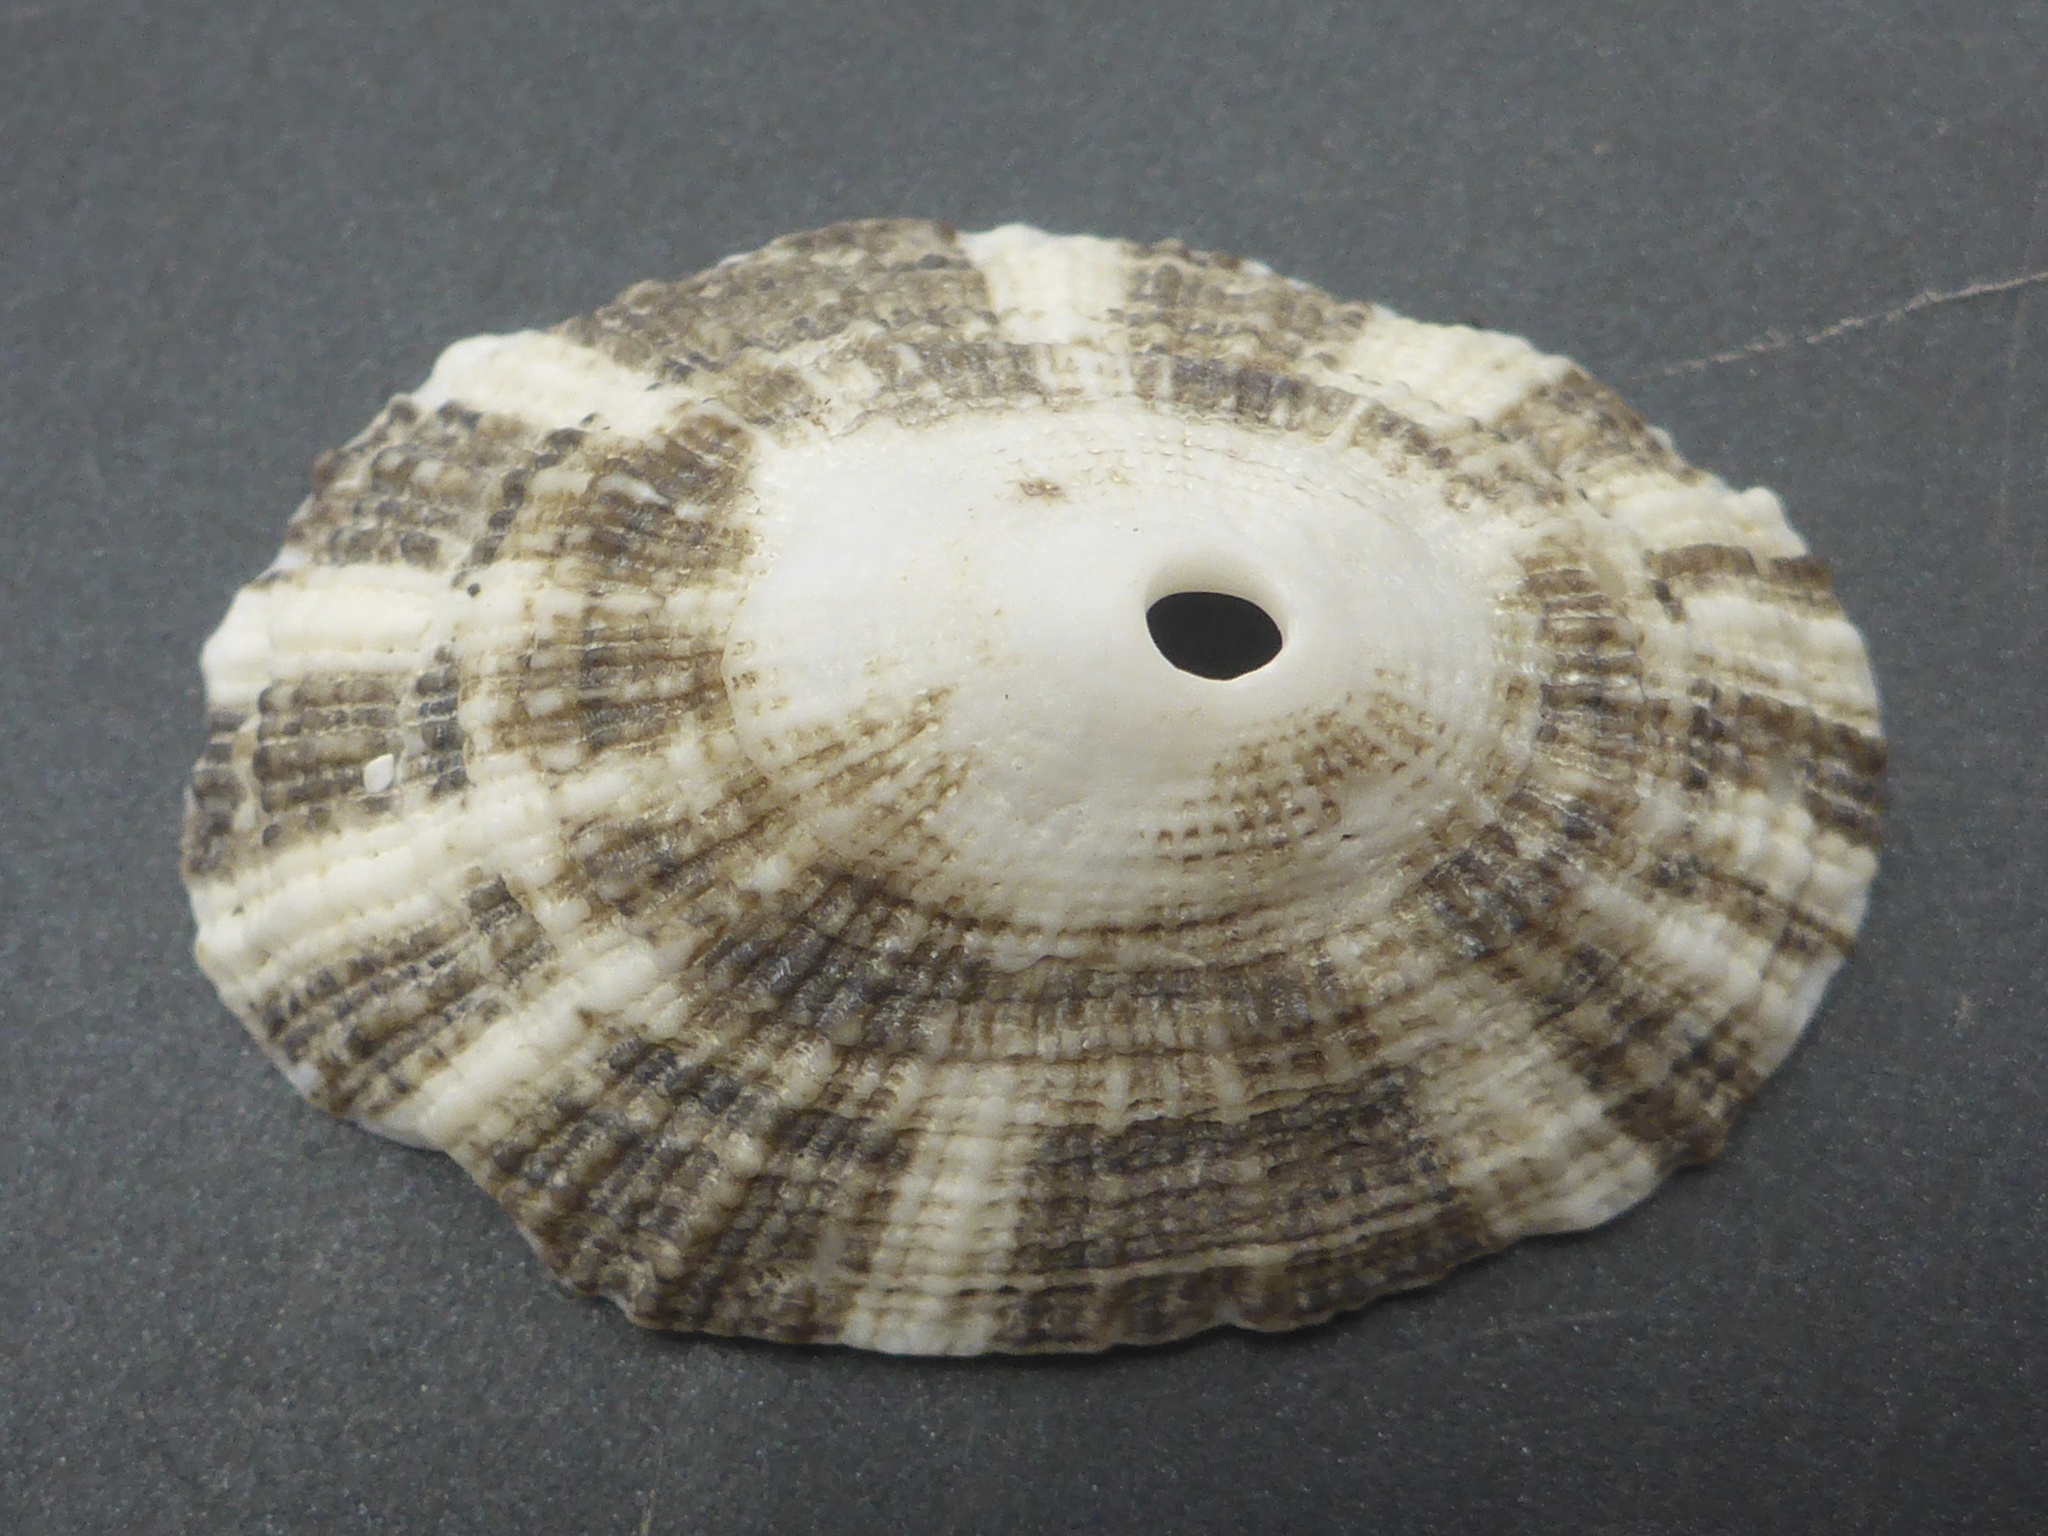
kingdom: Animalia
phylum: Mollusca
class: Gastropoda
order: Lepetellida
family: Fissurellidae
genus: Diodora
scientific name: Diodora aspera
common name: Rough keyhole limpet
